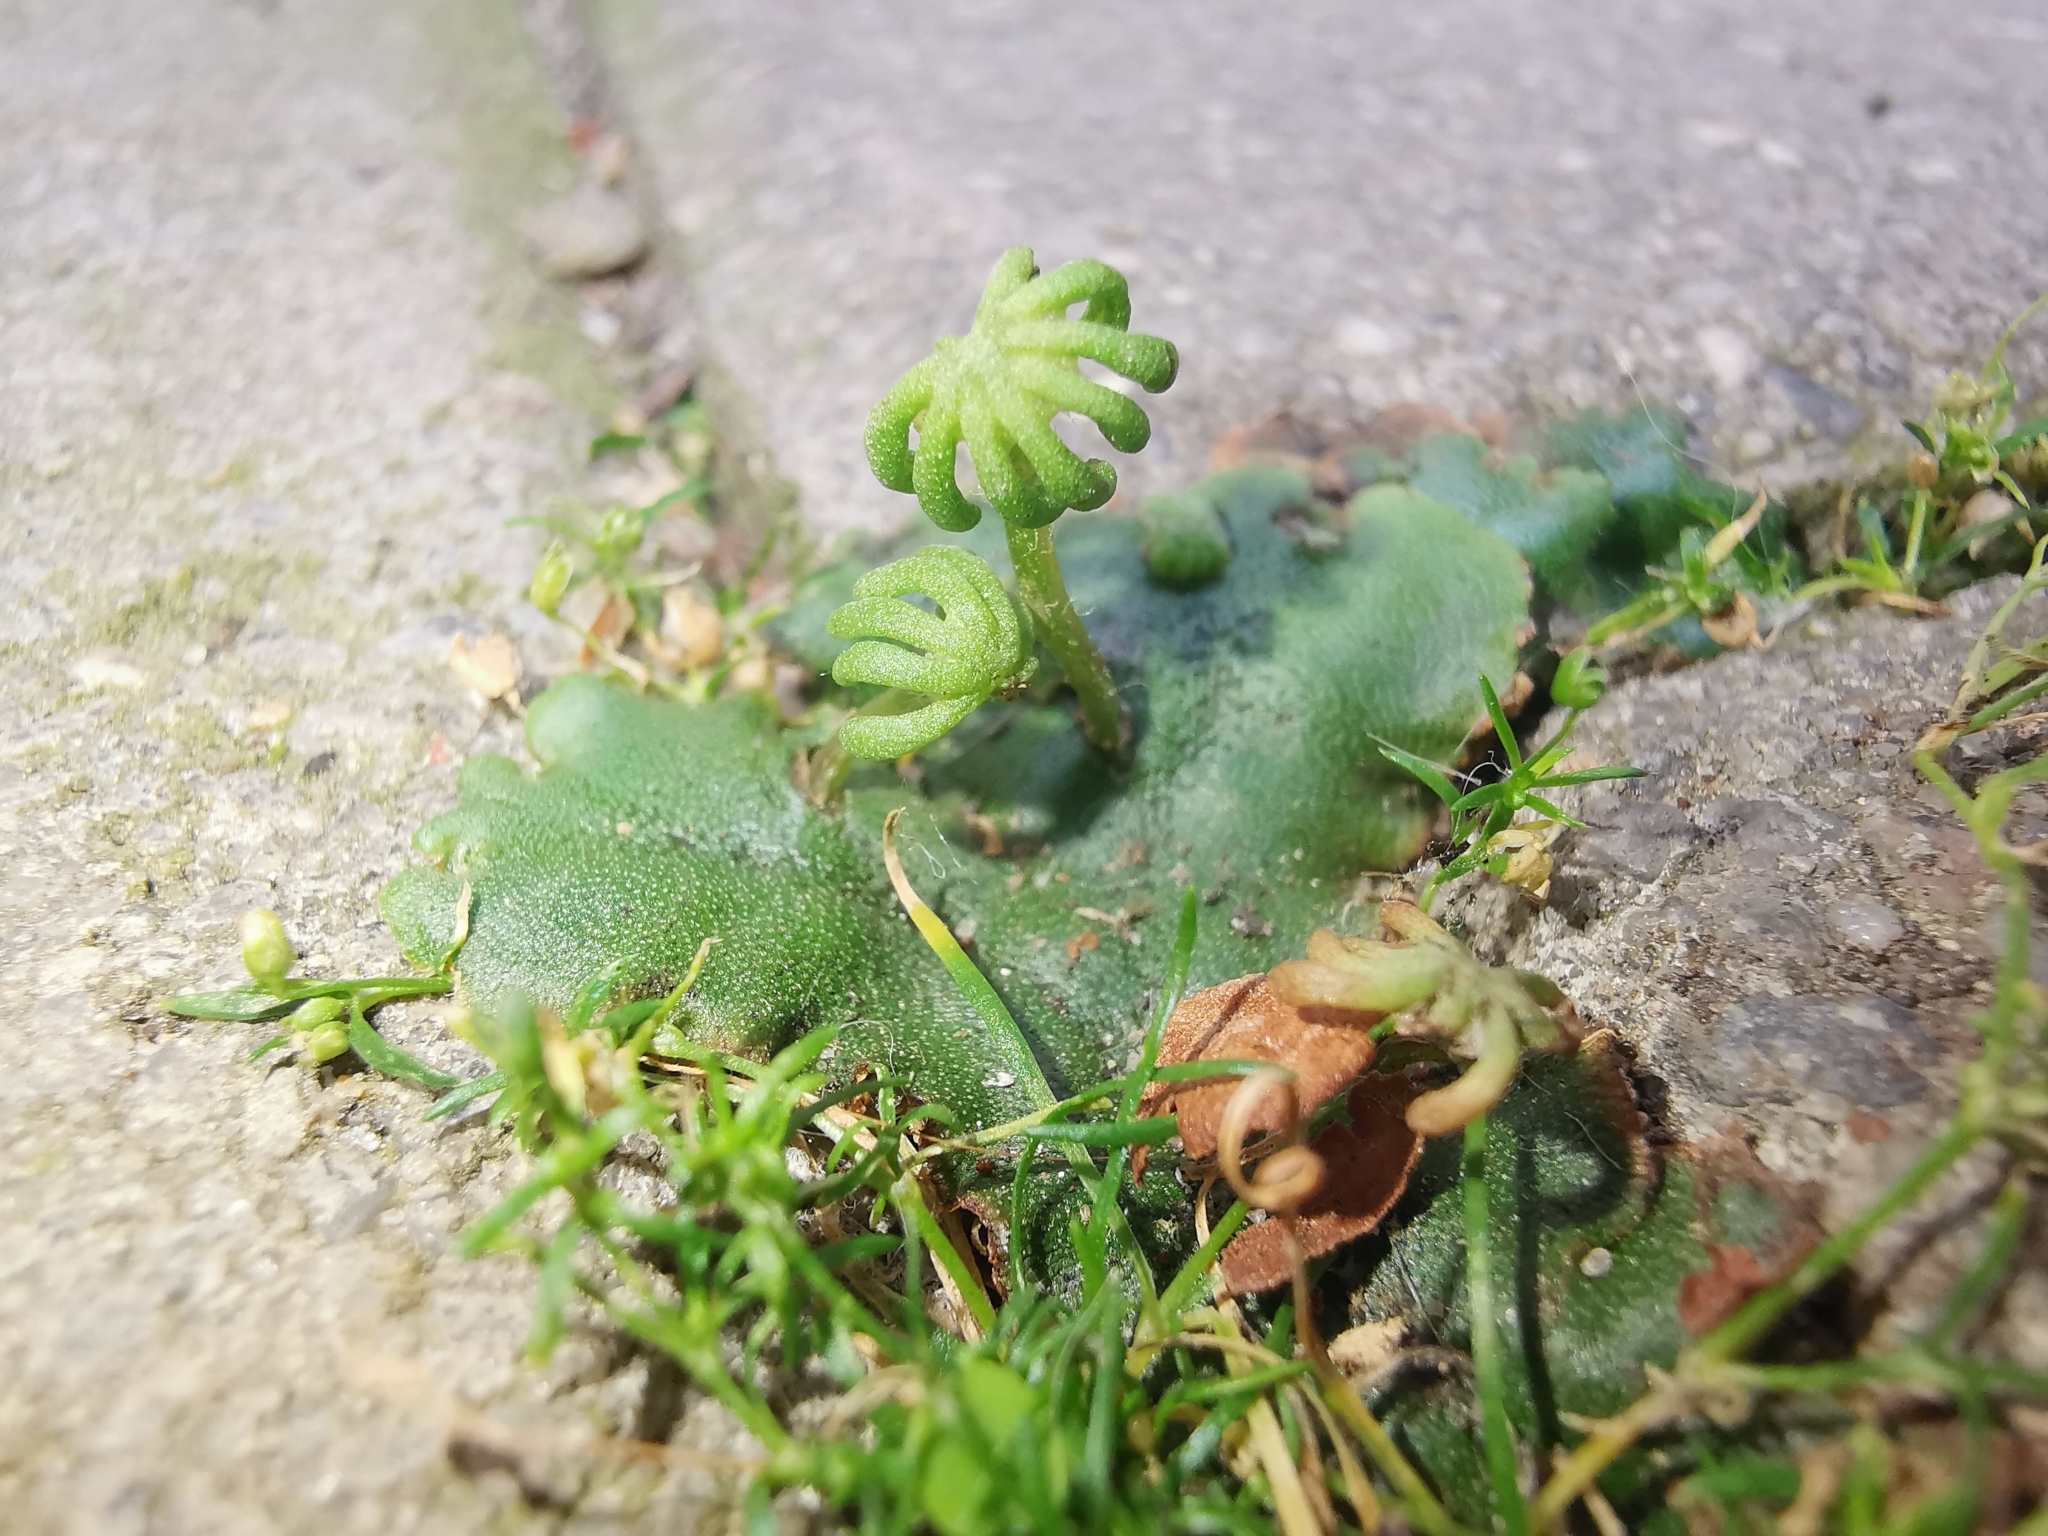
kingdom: Plantae
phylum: Marchantiophyta
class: Marchantiopsida
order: Marchantiales
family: Marchantiaceae
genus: Marchantia
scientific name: Marchantia polymorpha
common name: Common liverwort
